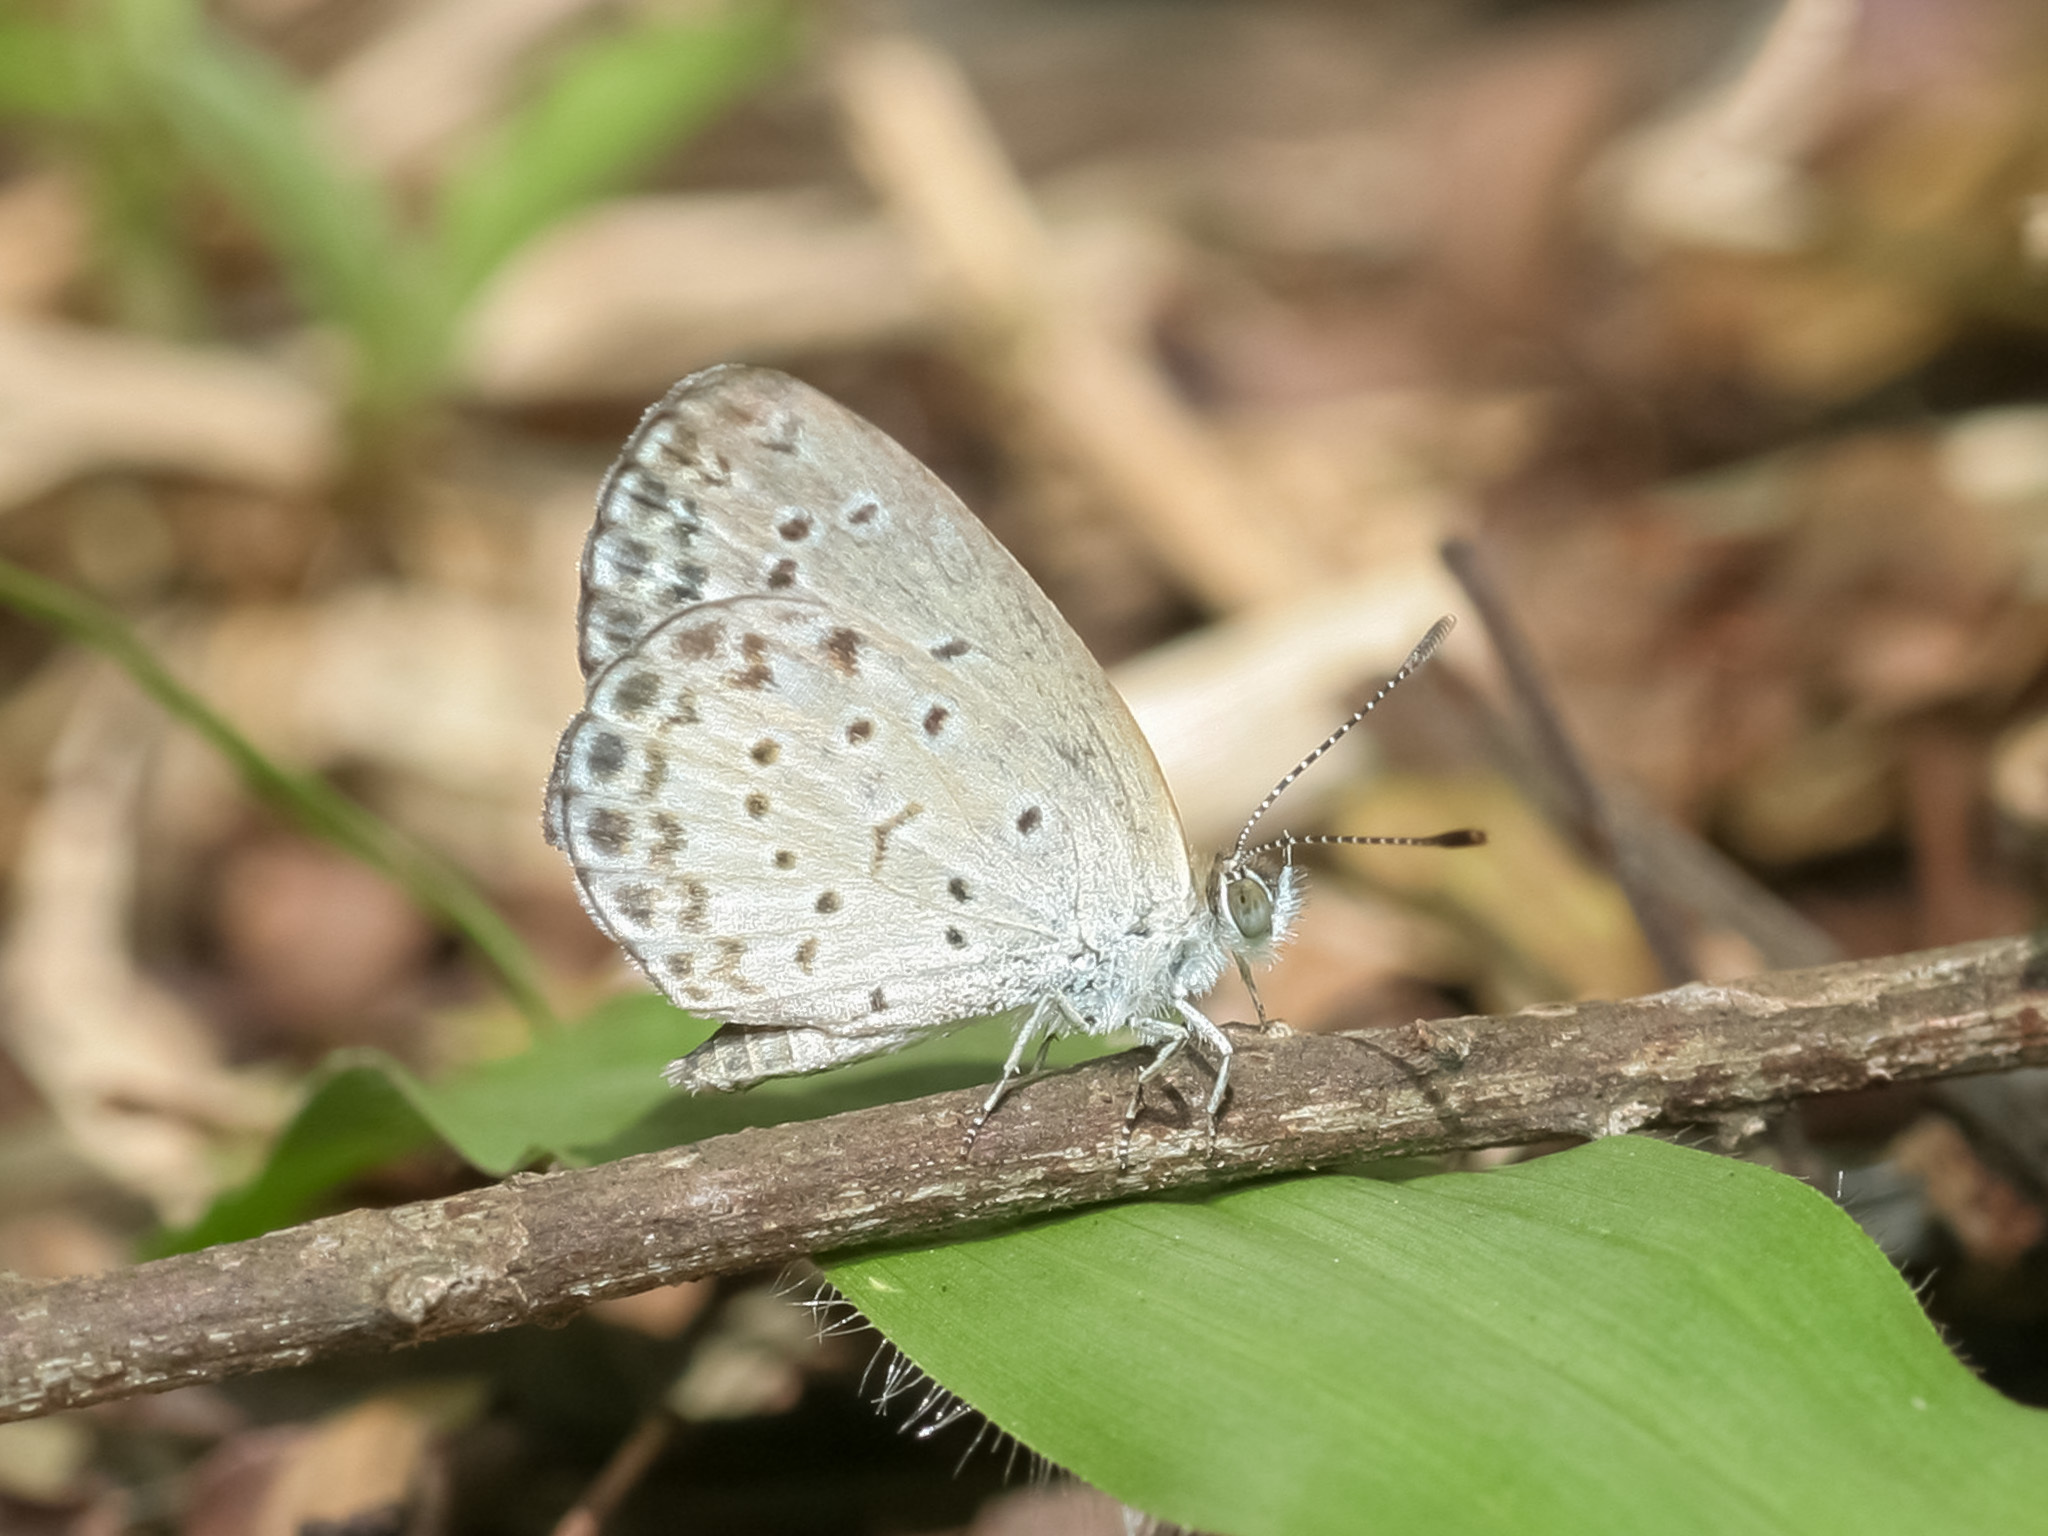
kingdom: Animalia
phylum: Arthropoda
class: Insecta
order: Lepidoptera
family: Lycaenidae
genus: Pseudozizeeria
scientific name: Pseudozizeeria maha
